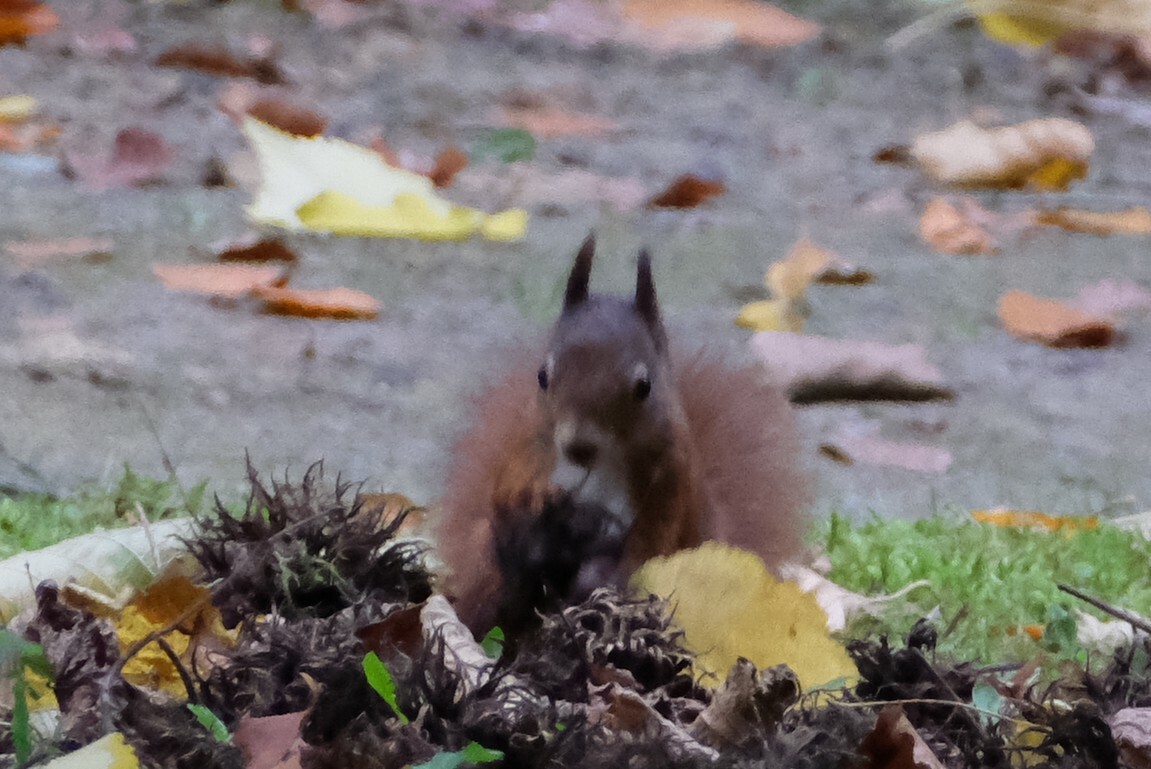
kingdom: Animalia
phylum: Chordata
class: Mammalia
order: Rodentia
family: Sciuridae
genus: Sciurus
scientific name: Sciurus vulgaris
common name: Eurasian red squirrel
